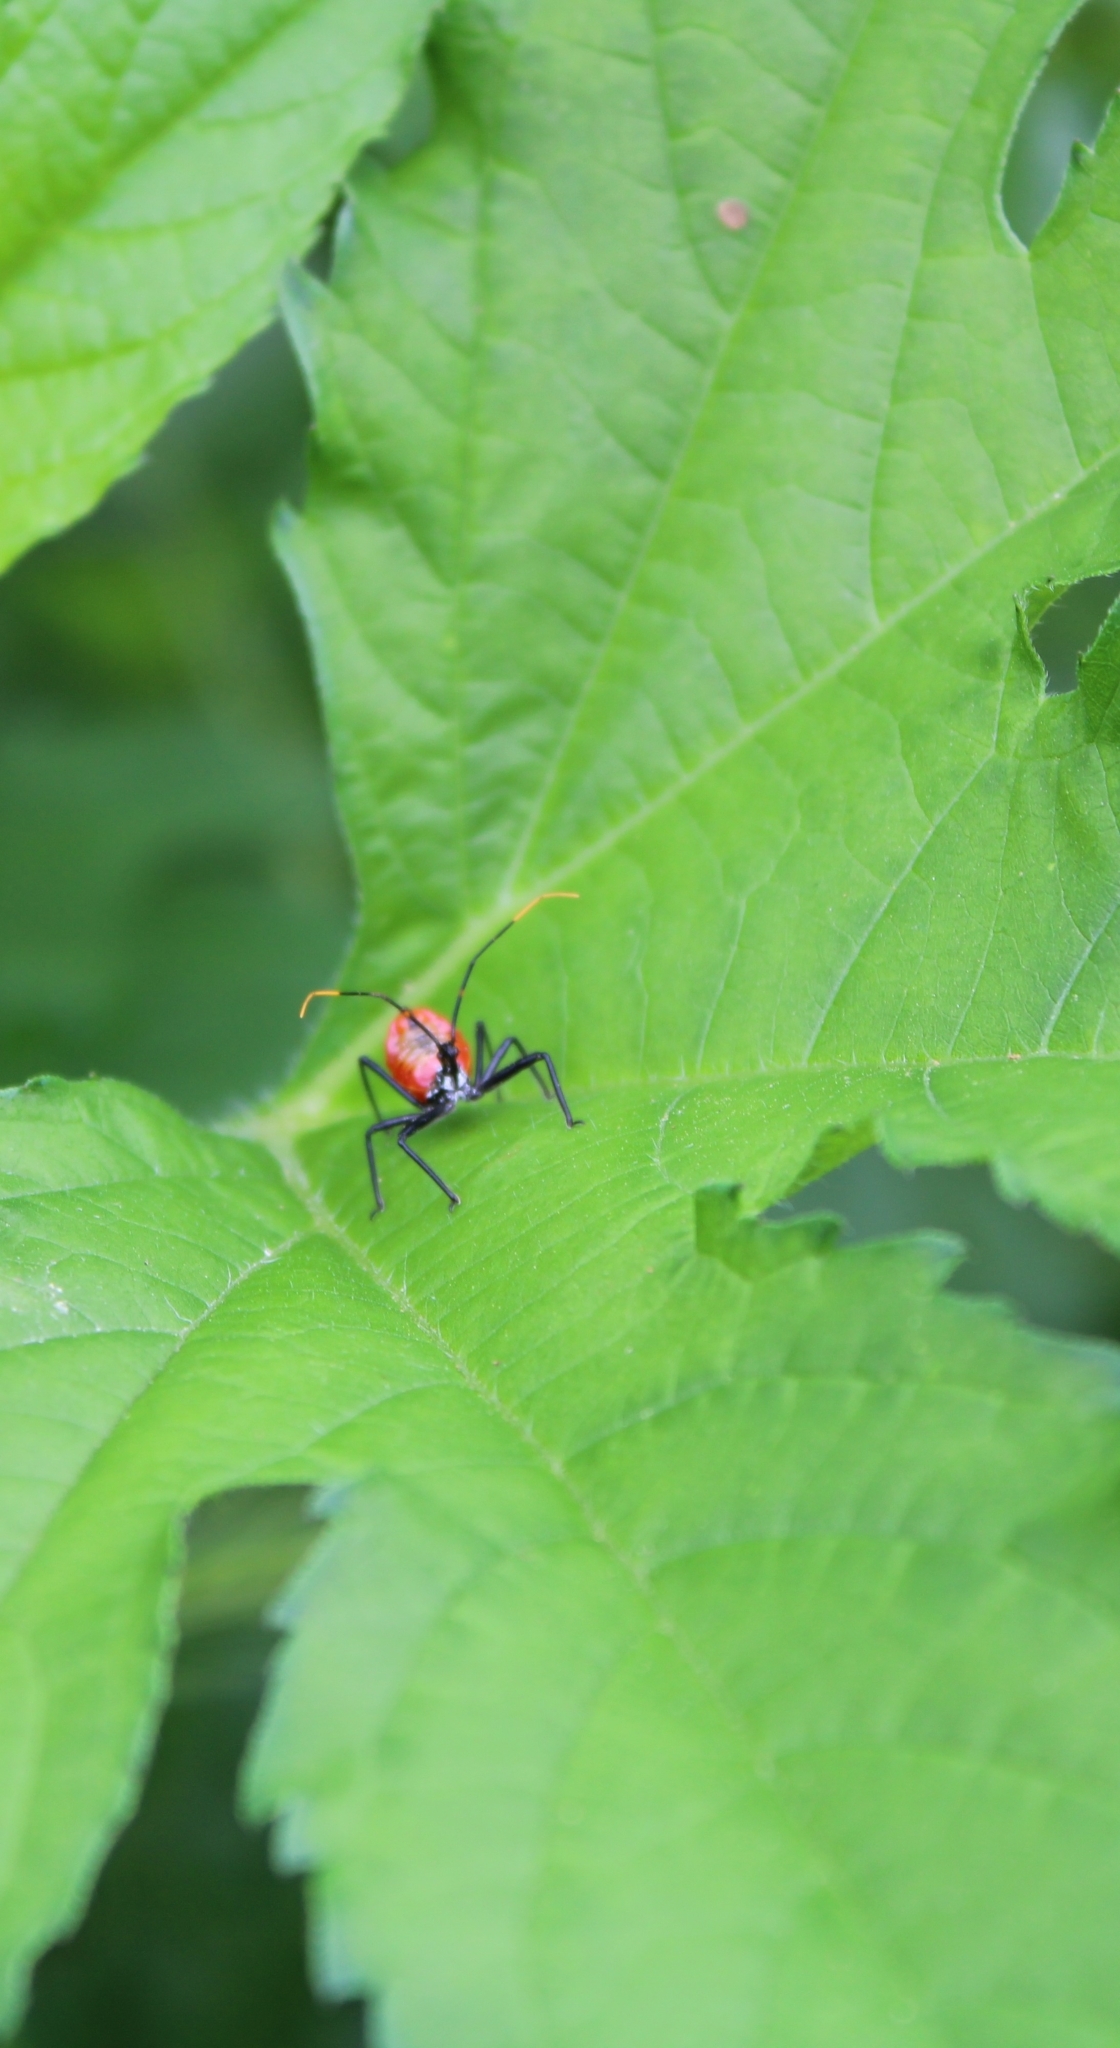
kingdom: Animalia
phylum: Arthropoda
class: Insecta
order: Hemiptera
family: Reduviidae
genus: Arilus
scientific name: Arilus cristatus
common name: North american wheel bug
